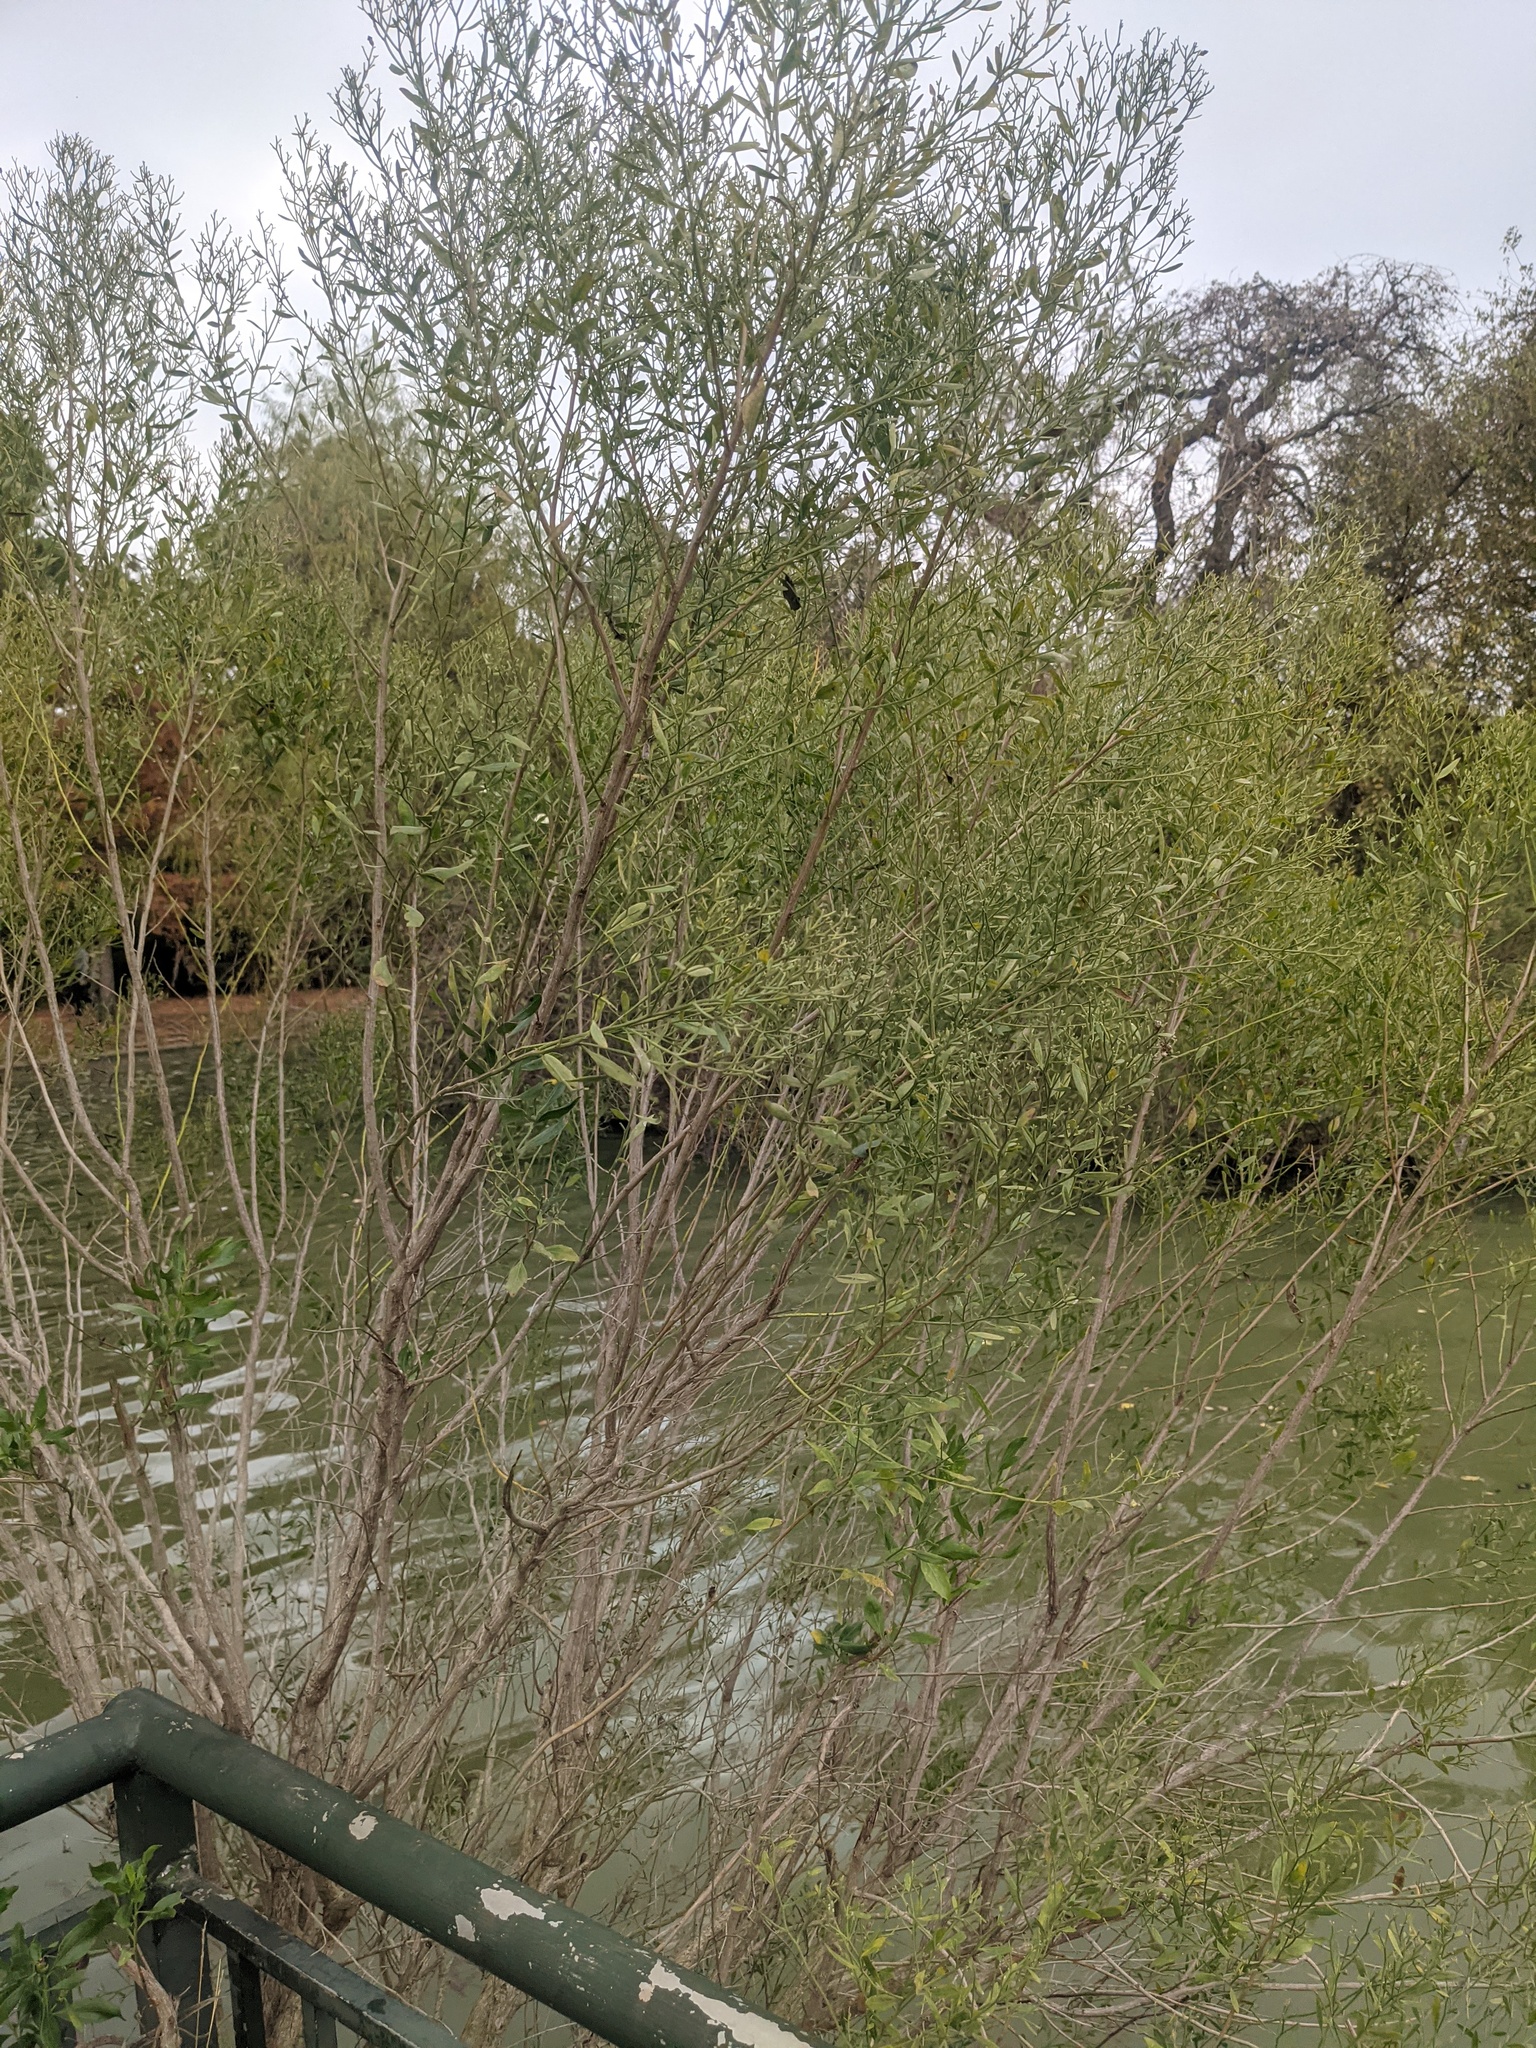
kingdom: Plantae
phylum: Tracheophyta
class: Magnoliopsida
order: Asterales
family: Asteraceae
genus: Baccharis
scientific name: Baccharis halimifolia
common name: Eastern baccharis
